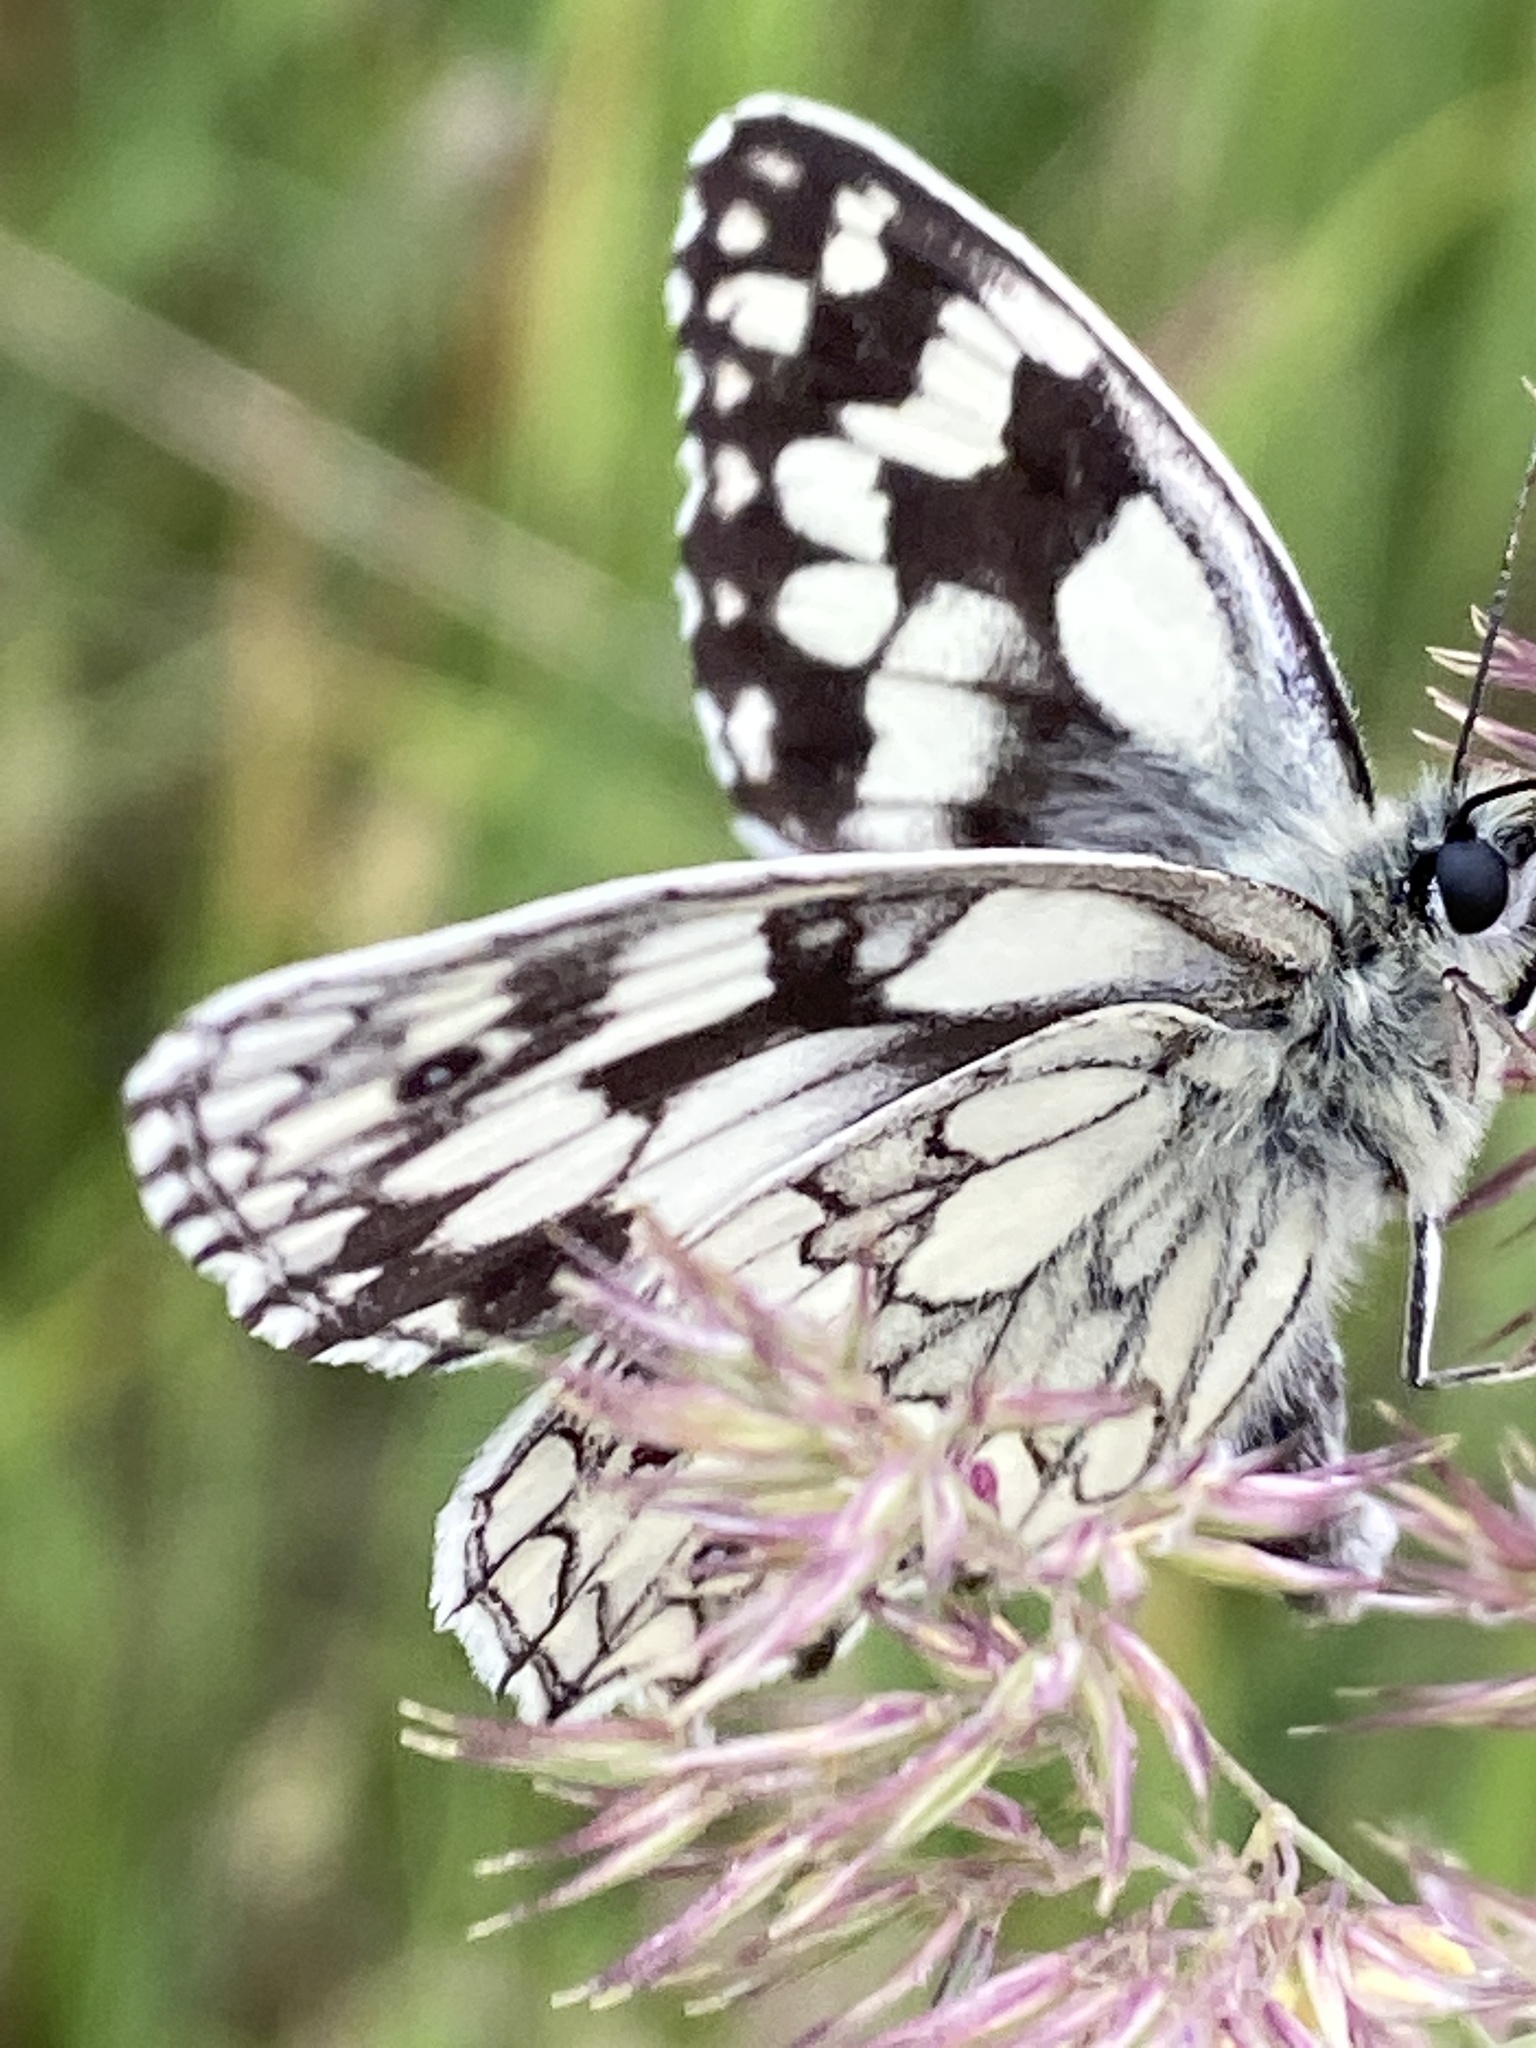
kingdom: Animalia
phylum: Arthropoda
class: Insecta
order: Lepidoptera
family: Nymphalidae
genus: Melanargia
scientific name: Melanargia galathea
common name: Marbled white
